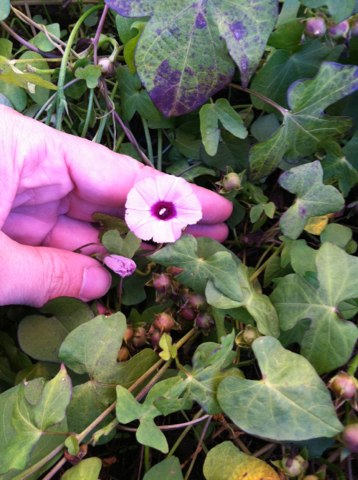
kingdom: Plantae
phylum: Tracheophyta
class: Magnoliopsida
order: Solanales
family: Convolvulaceae
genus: Ipomoea
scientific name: Ipomoea cordatotriloba
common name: Cotton morning glory
